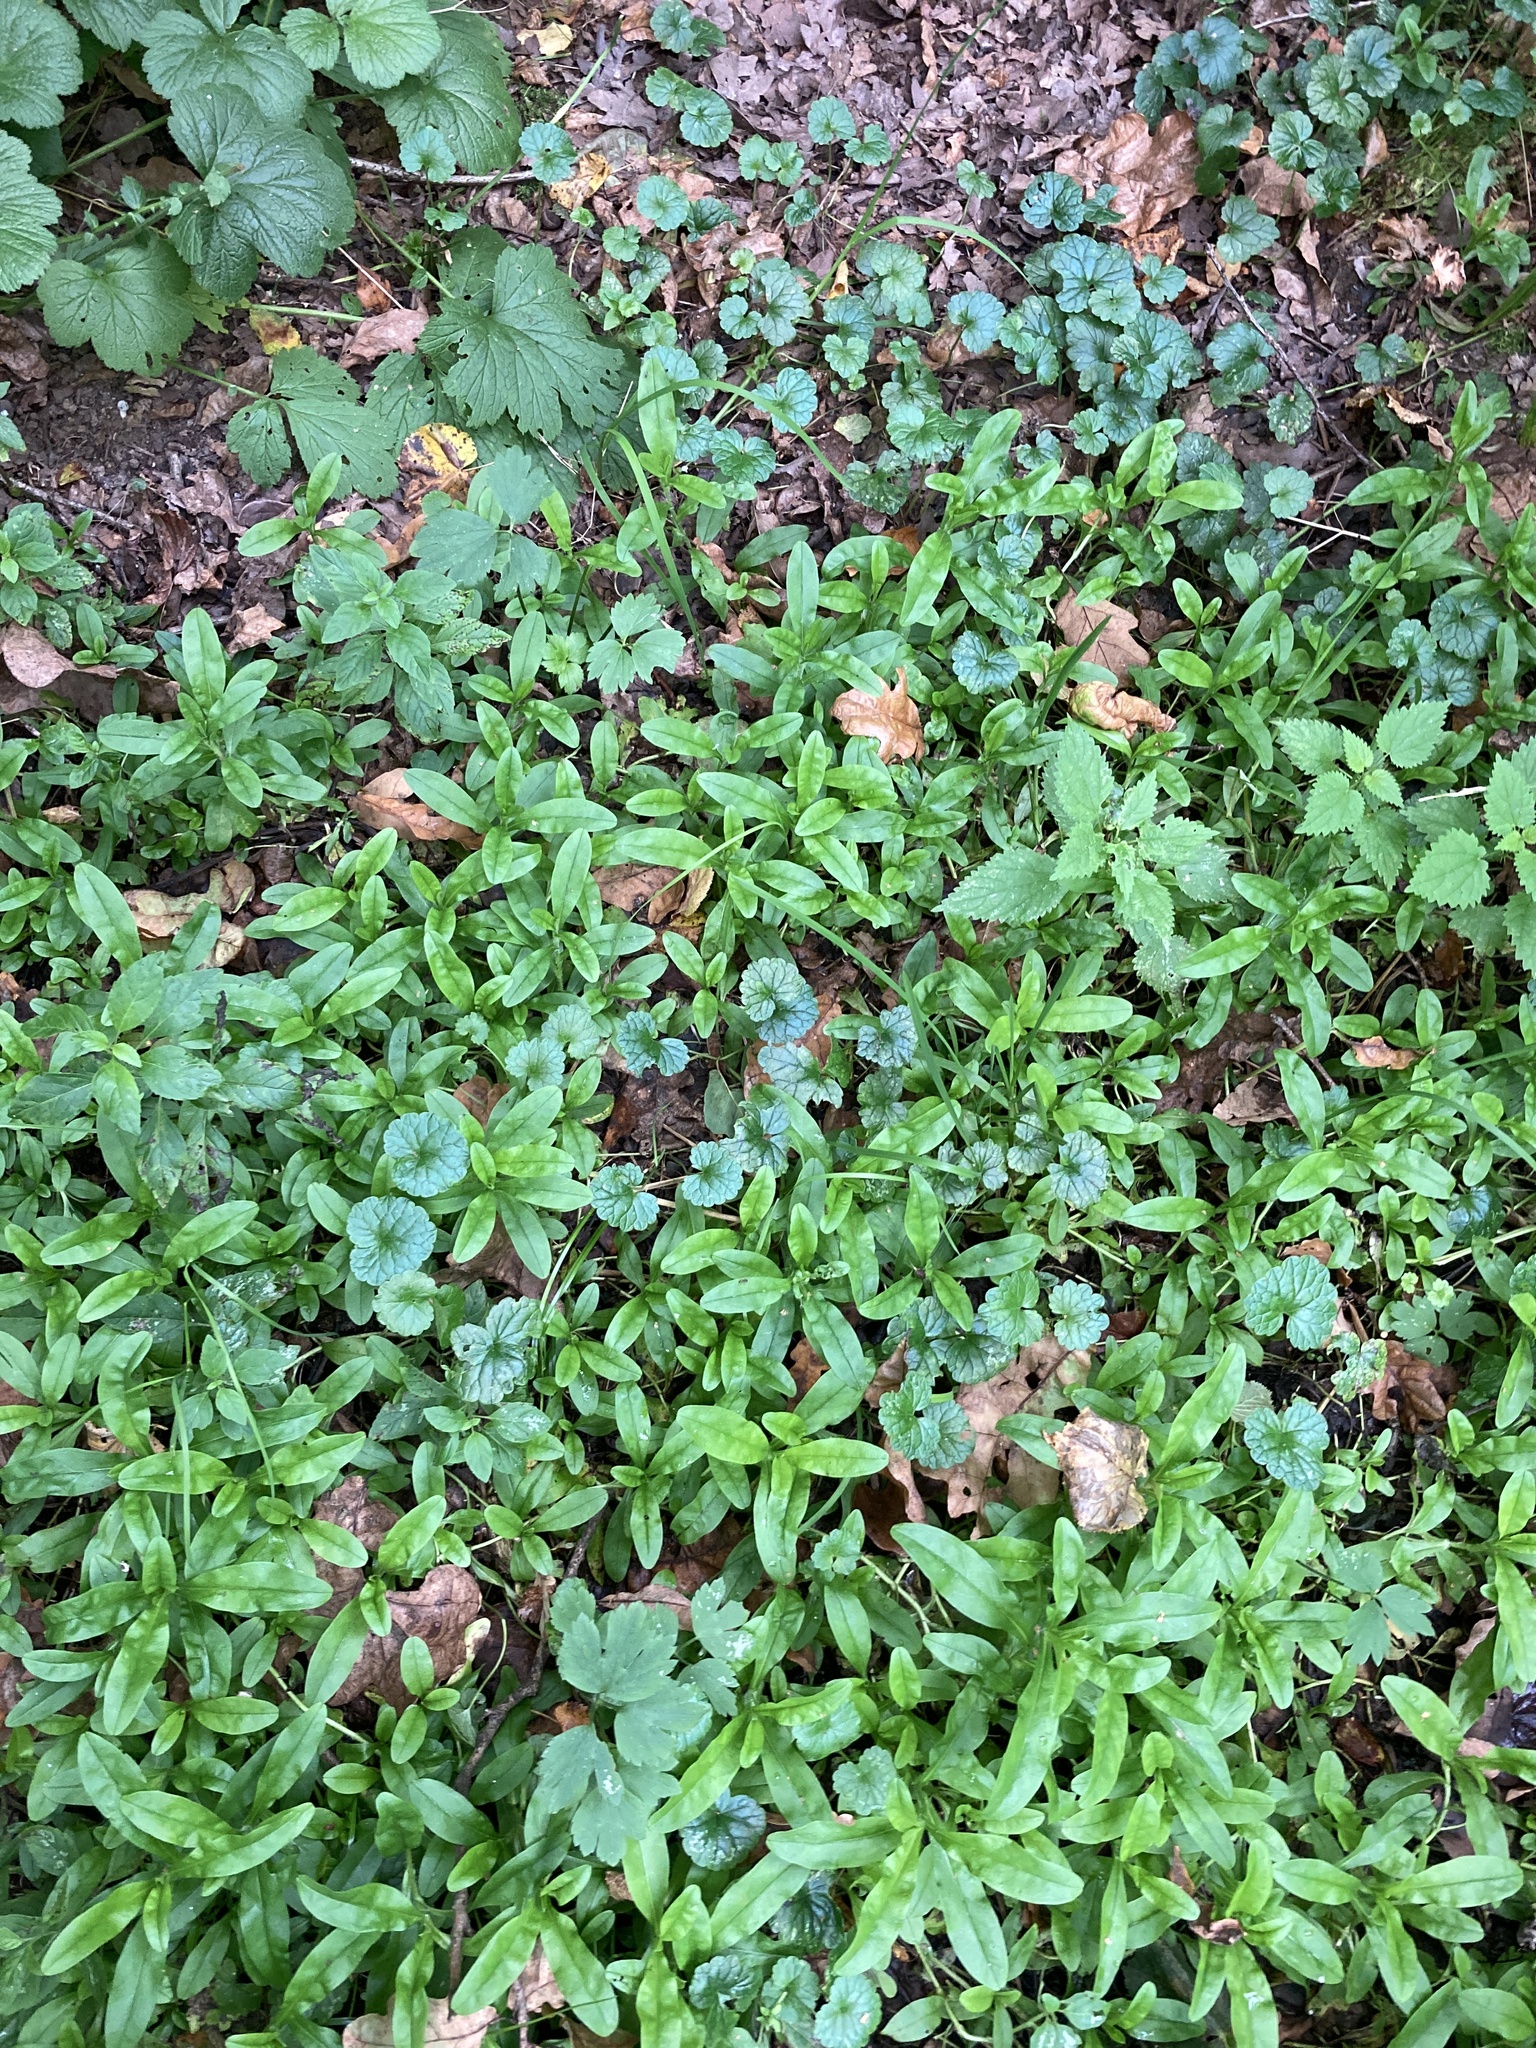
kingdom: Plantae
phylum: Tracheophyta
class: Magnoliopsida
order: Boraginales
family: Boraginaceae
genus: Myosotis
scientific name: Myosotis scorpioides
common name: Water forget-me-not
